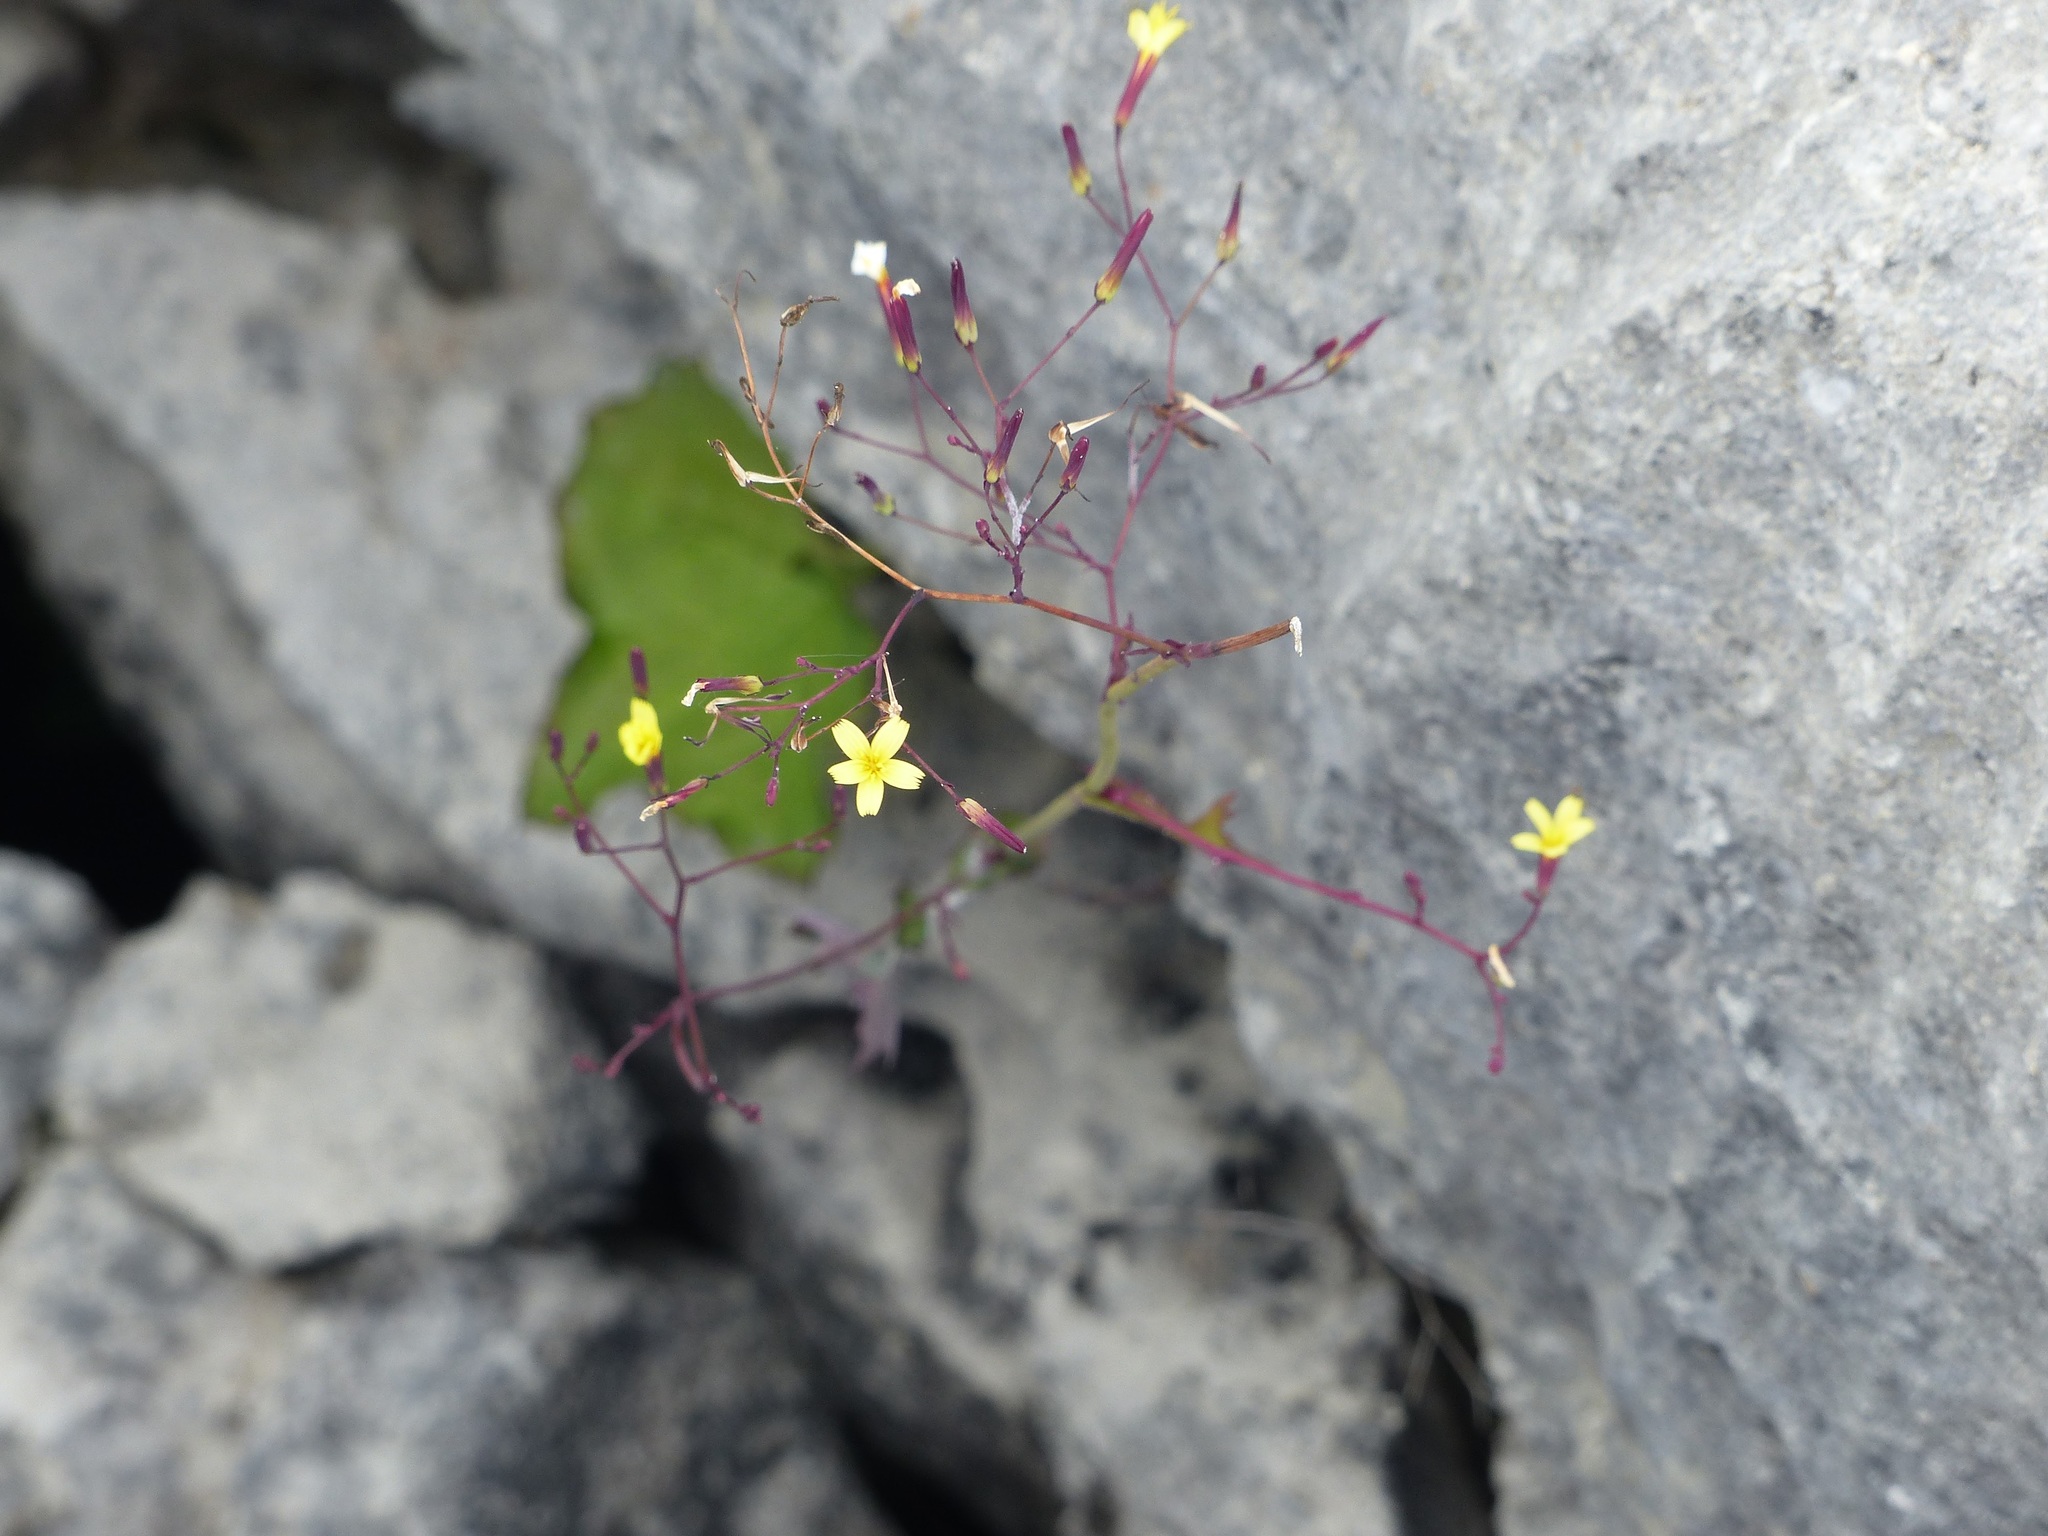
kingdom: Plantae
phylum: Tracheophyta
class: Magnoliopsida
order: Asterales
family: Asteraceae
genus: Mycelis
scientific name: Mycelis muralis
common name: Wall lettuce
